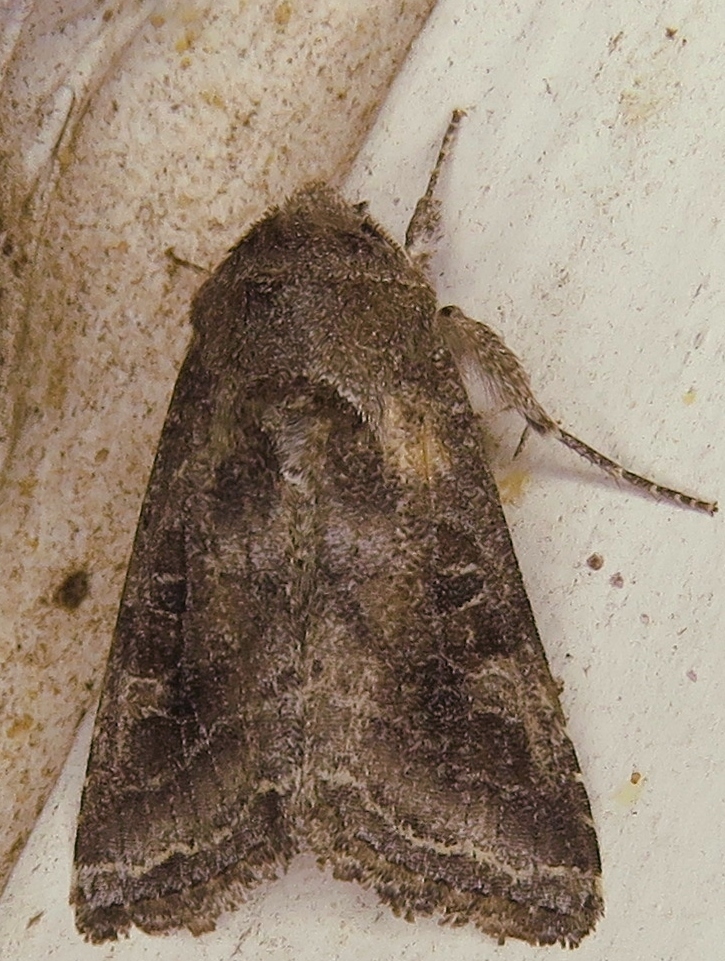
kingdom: Animalia
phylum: Arthropoda
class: Insecta
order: Lepidoptera
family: Noctuidae
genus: Lacinipolia
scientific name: Lacinipolia erecta
